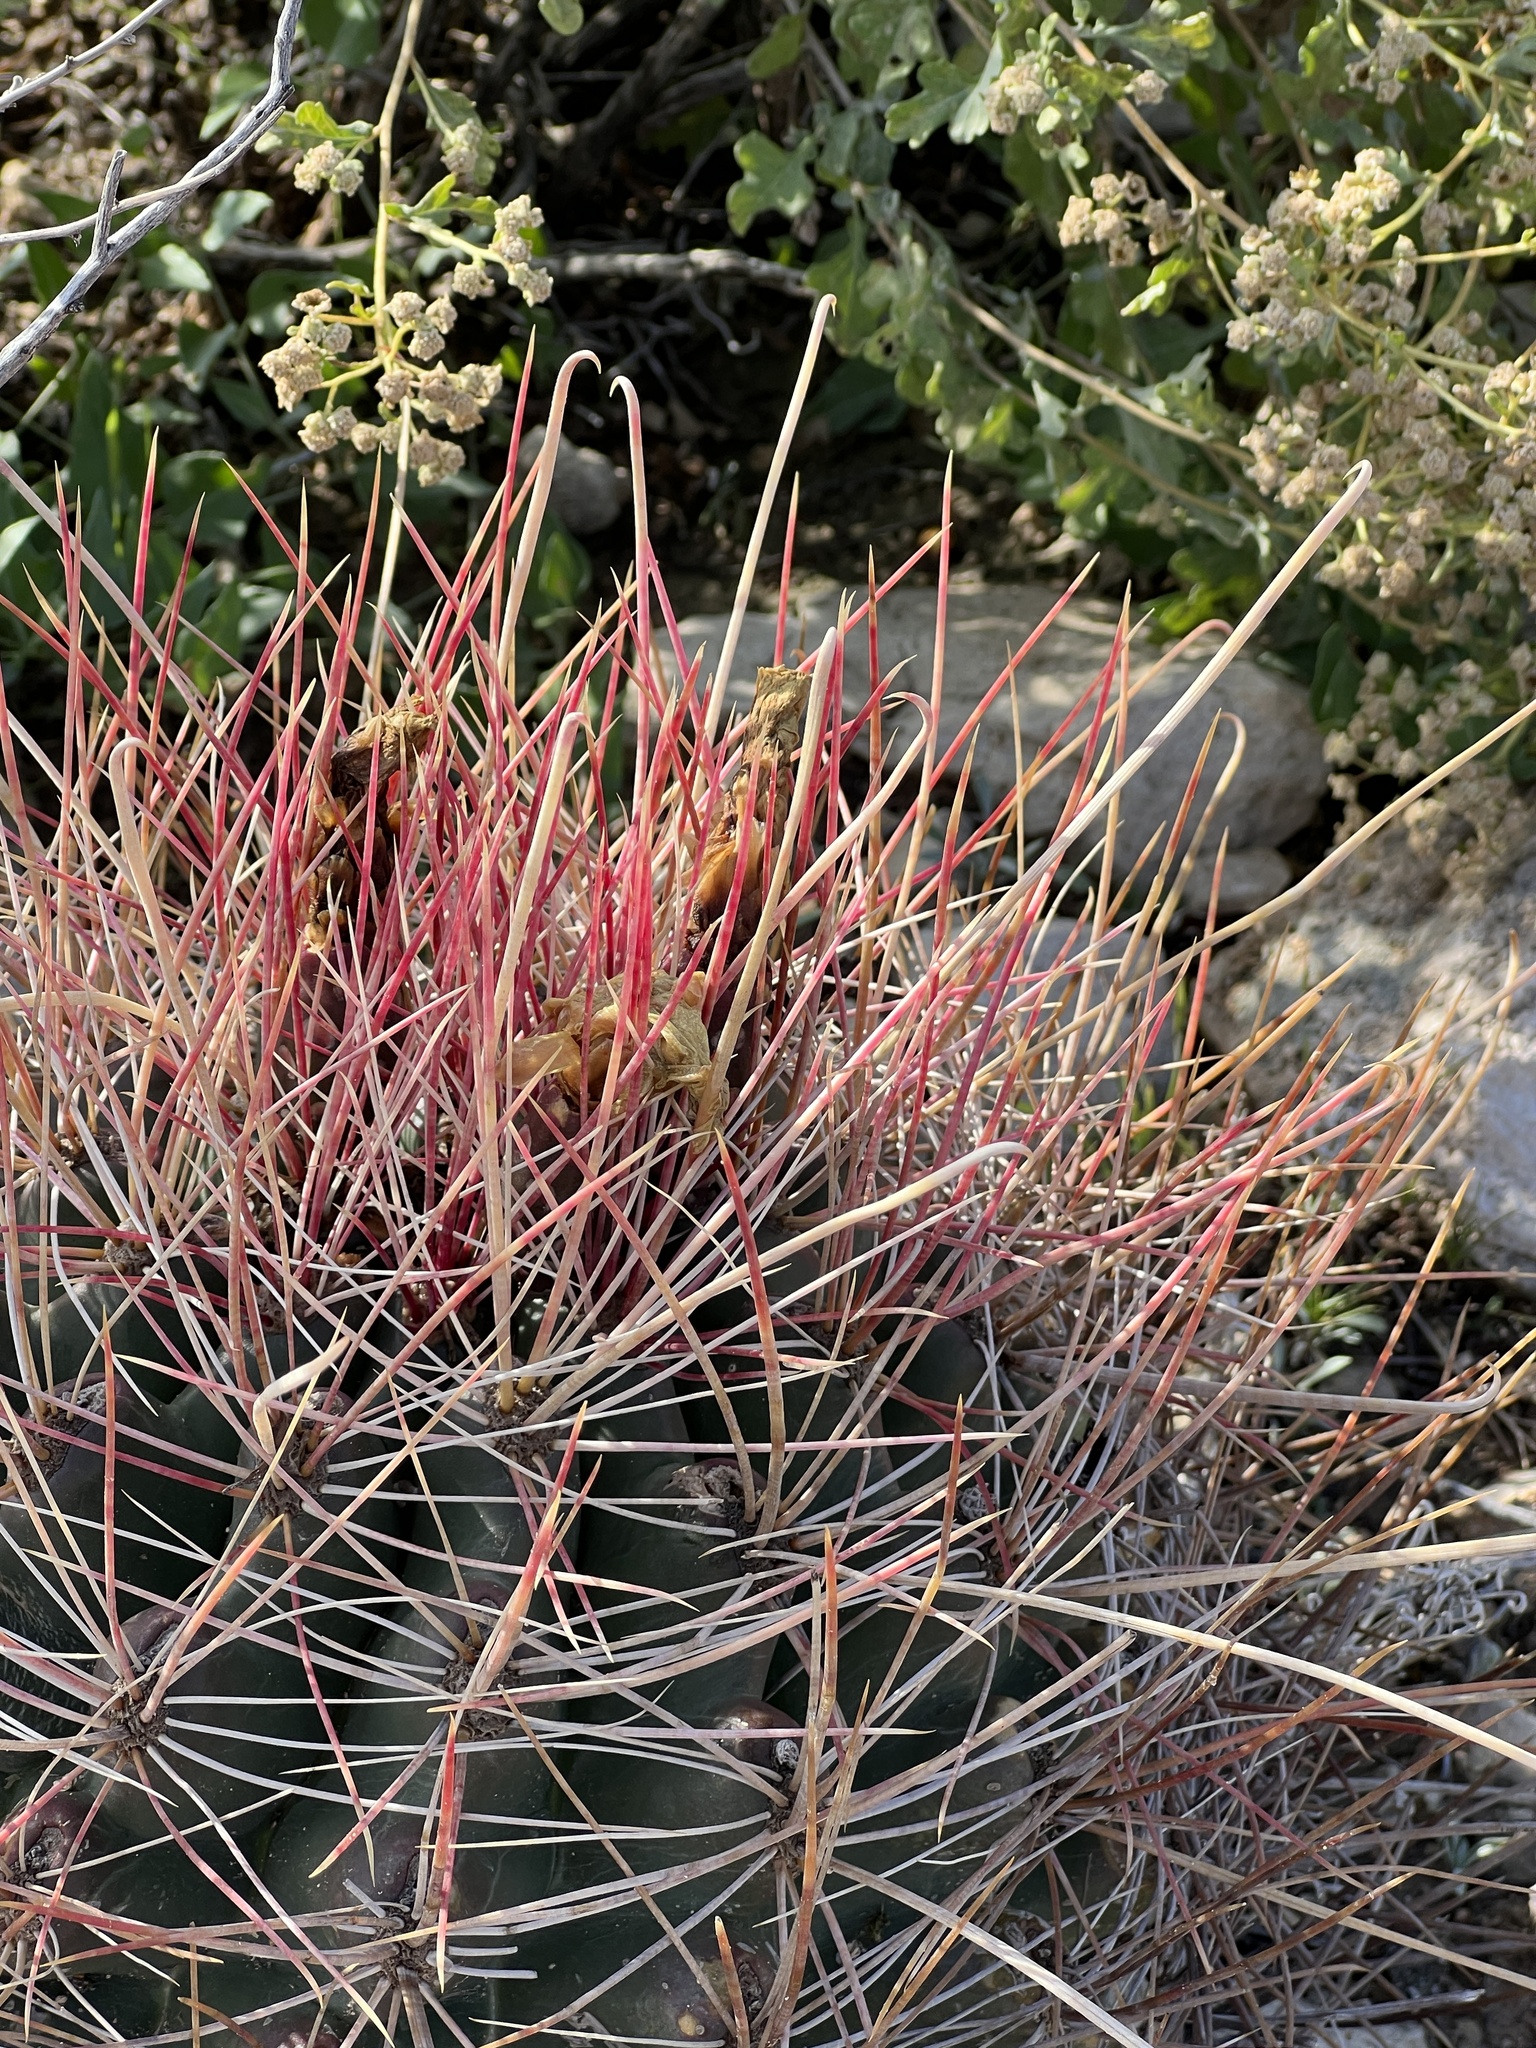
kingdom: Plantae
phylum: Tracheophyta
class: Magnoliopsida
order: Caryophyllales
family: Cactaceae
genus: Bisnaga
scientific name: Bisnaga hamatacantha
